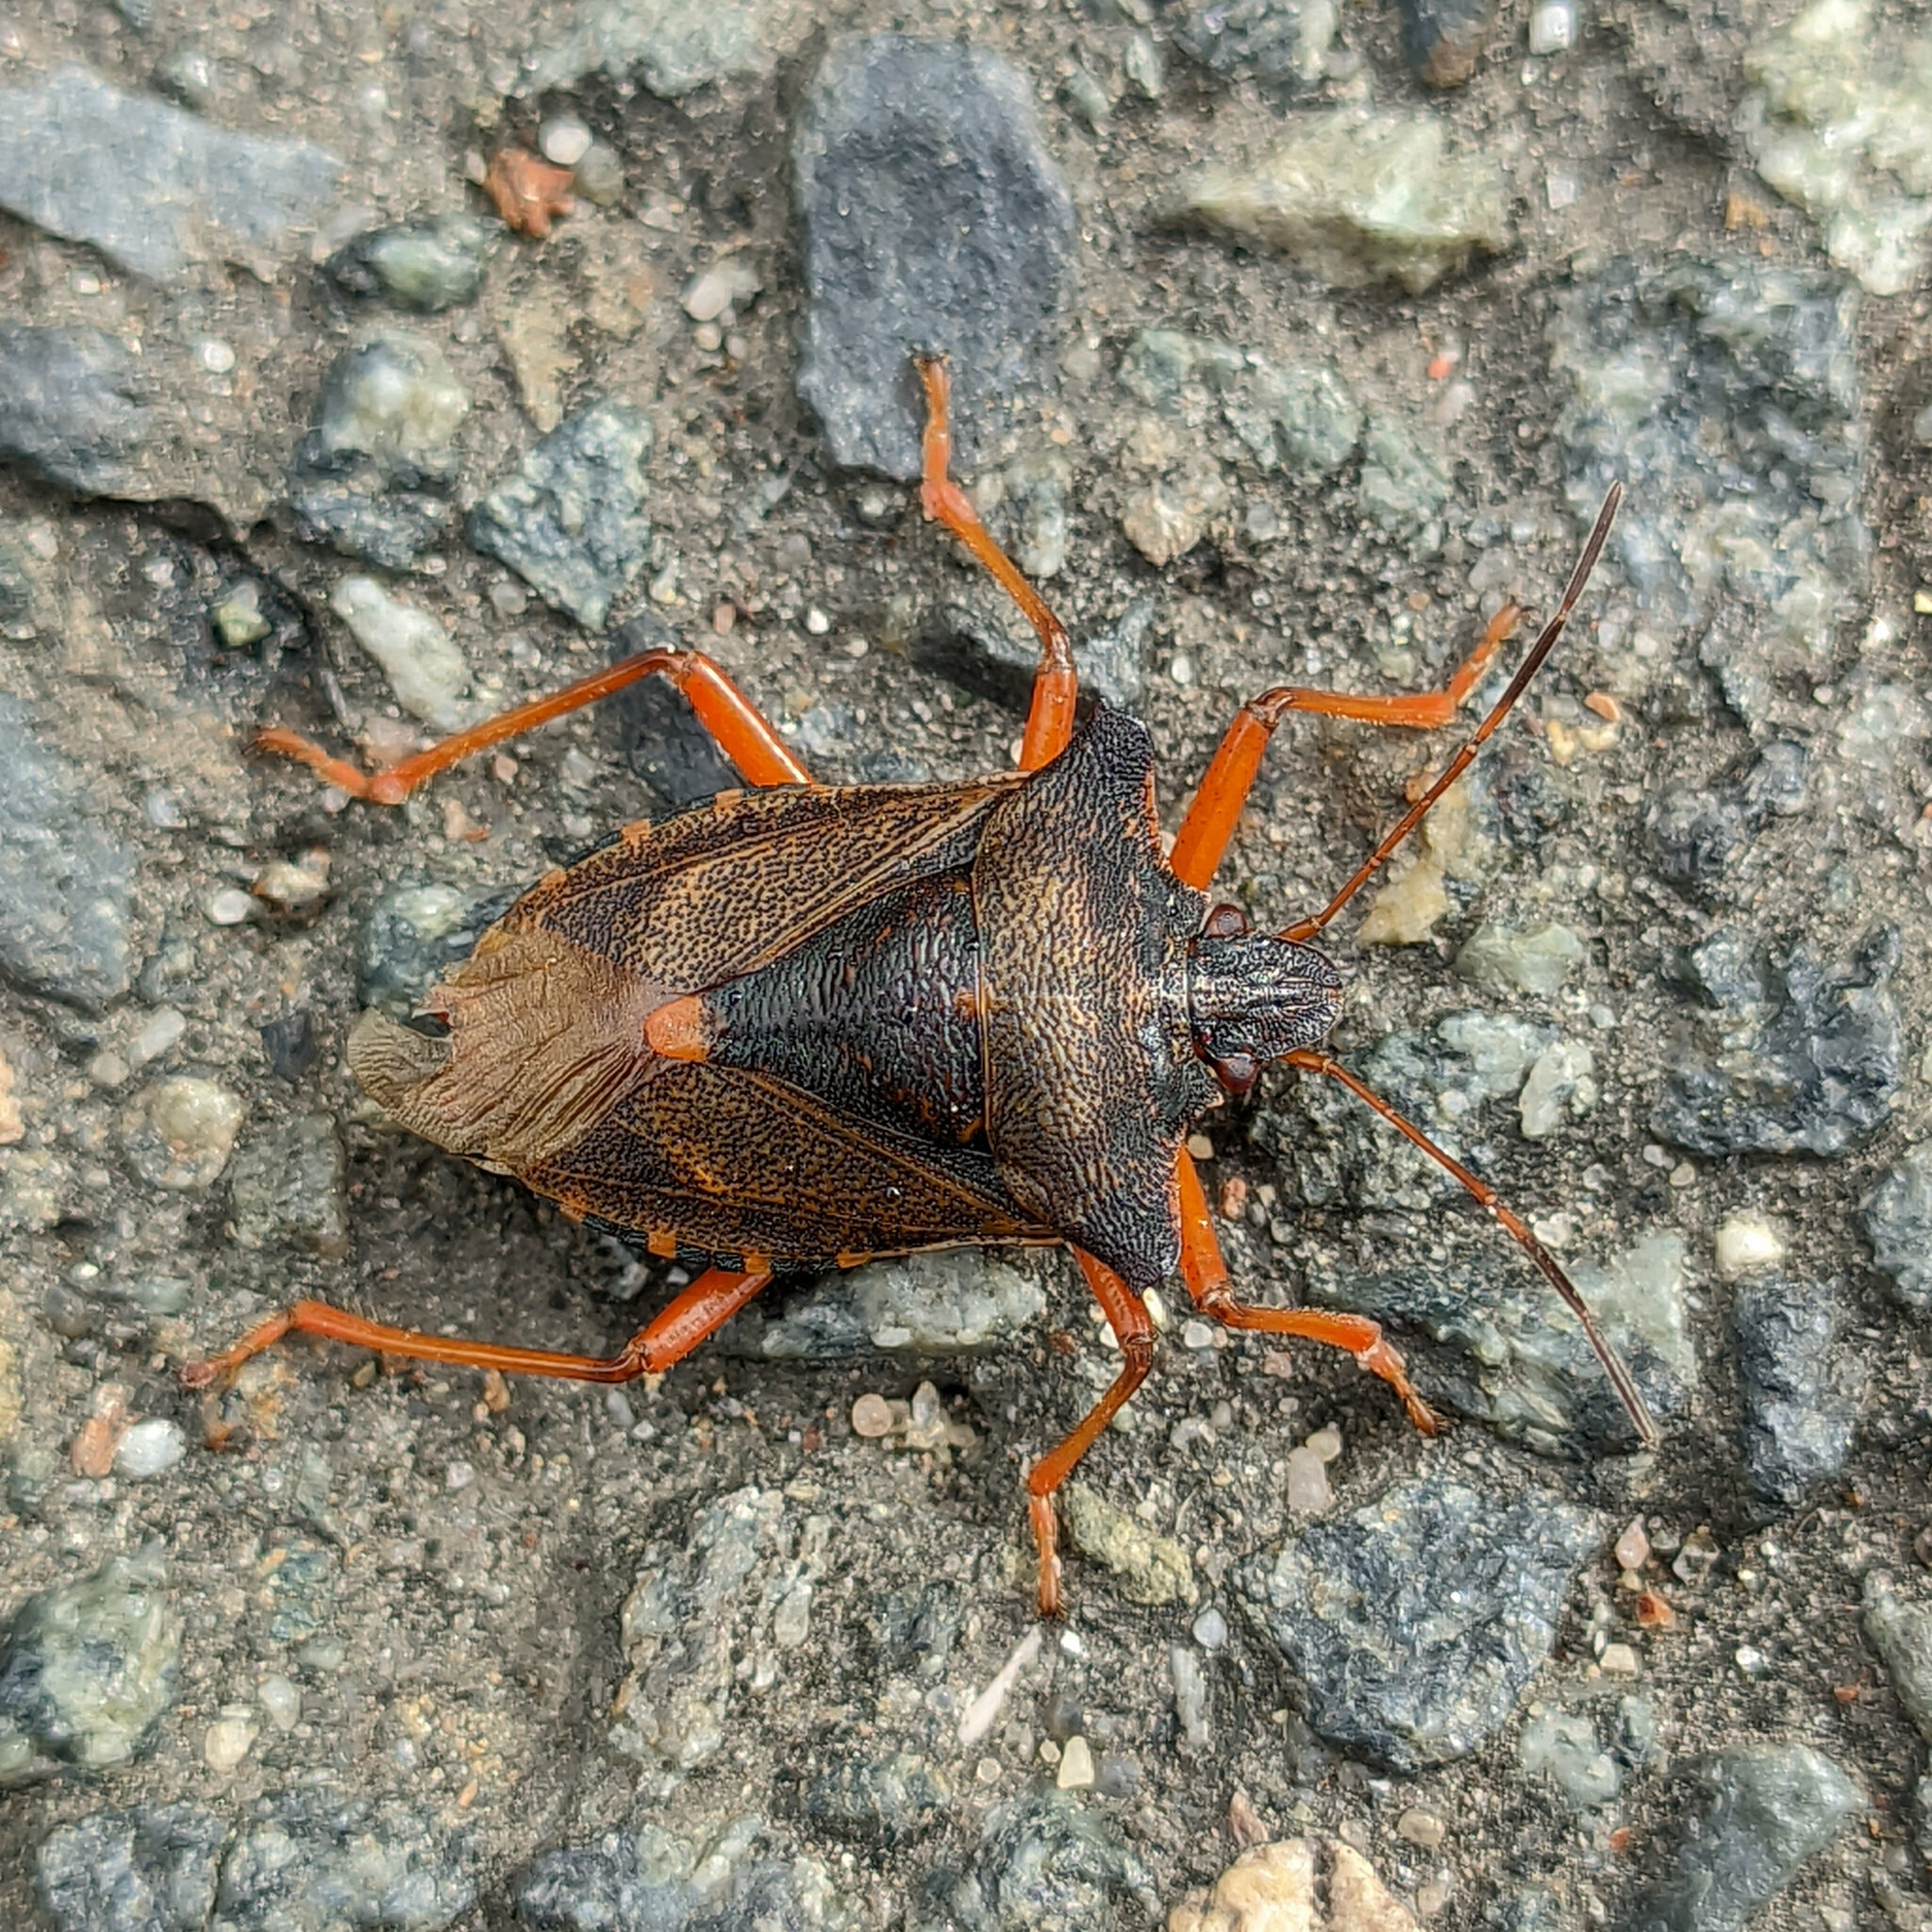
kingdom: Animalia
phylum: Arthropoda
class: Insecta
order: Hemiptera
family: Pentatomidae
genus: Pentatoma
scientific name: Pentatoma rufipes
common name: Forest bug
